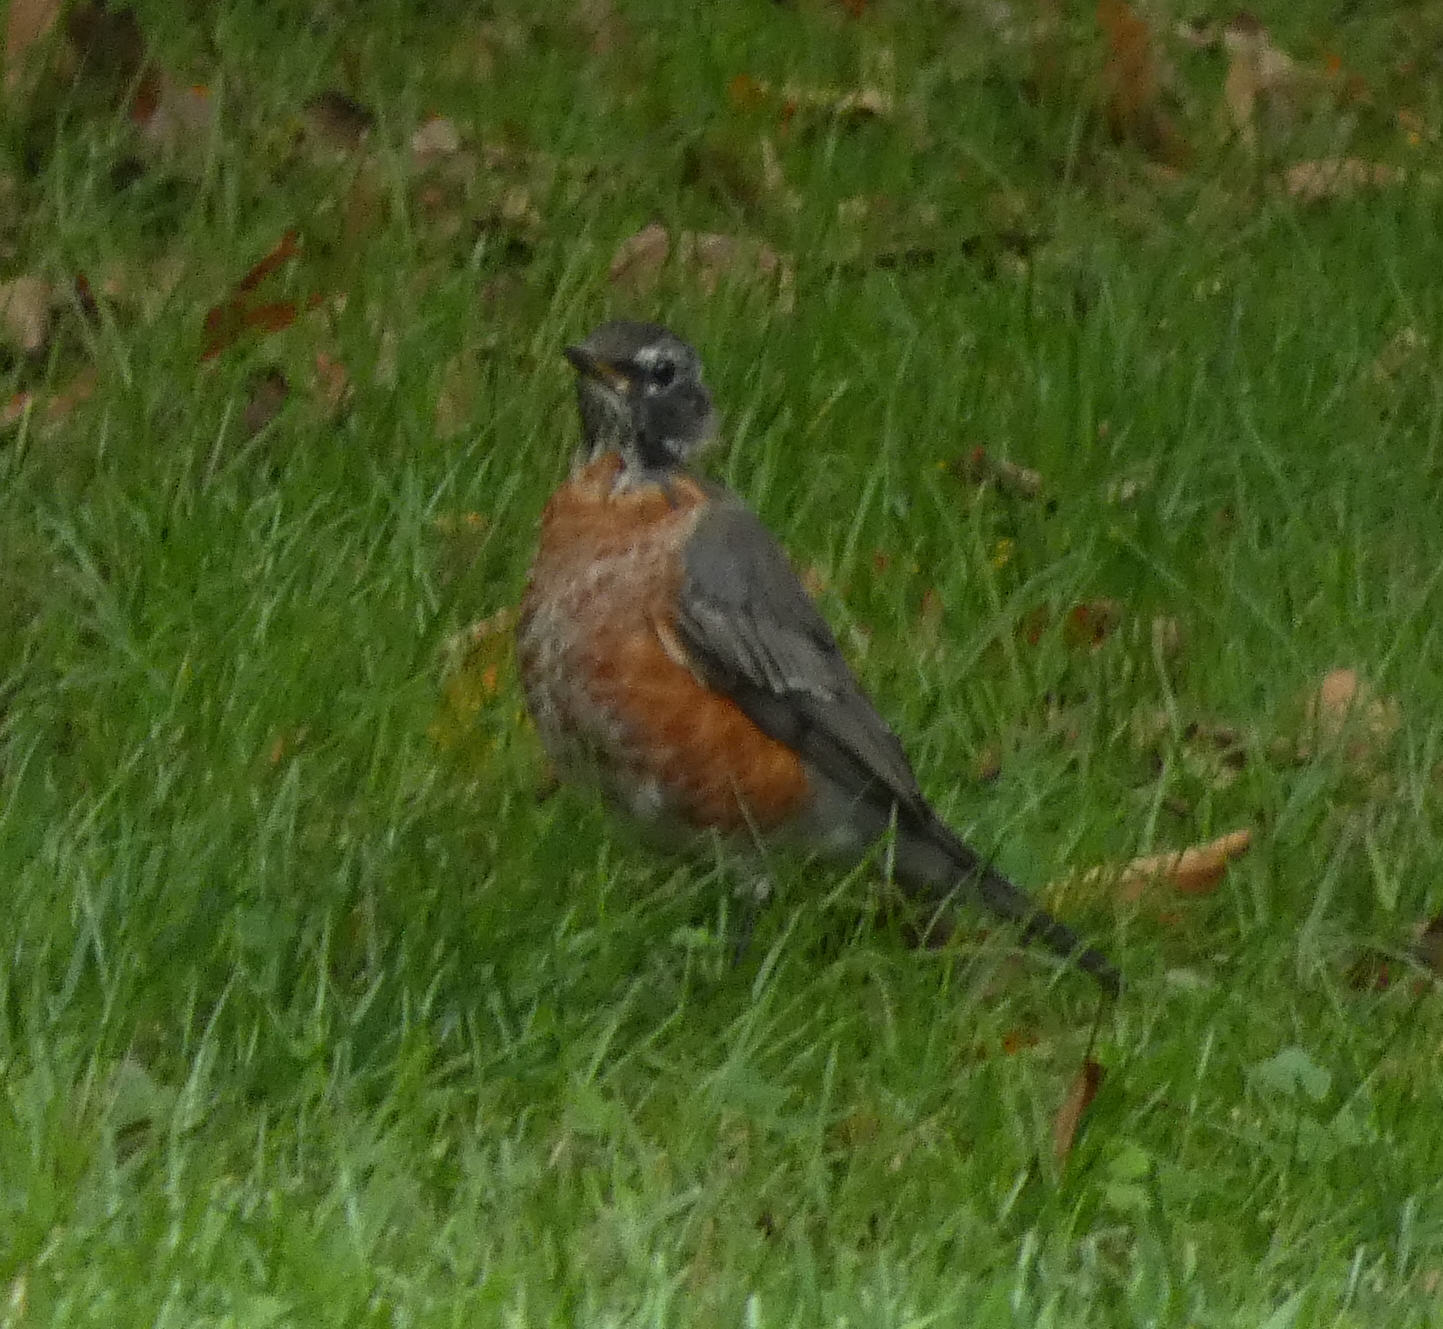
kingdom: Animalia
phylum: Chordata
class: Aves
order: Passeriformes
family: Turdidae
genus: Turdus
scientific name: Turdus migratorius
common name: American robin
